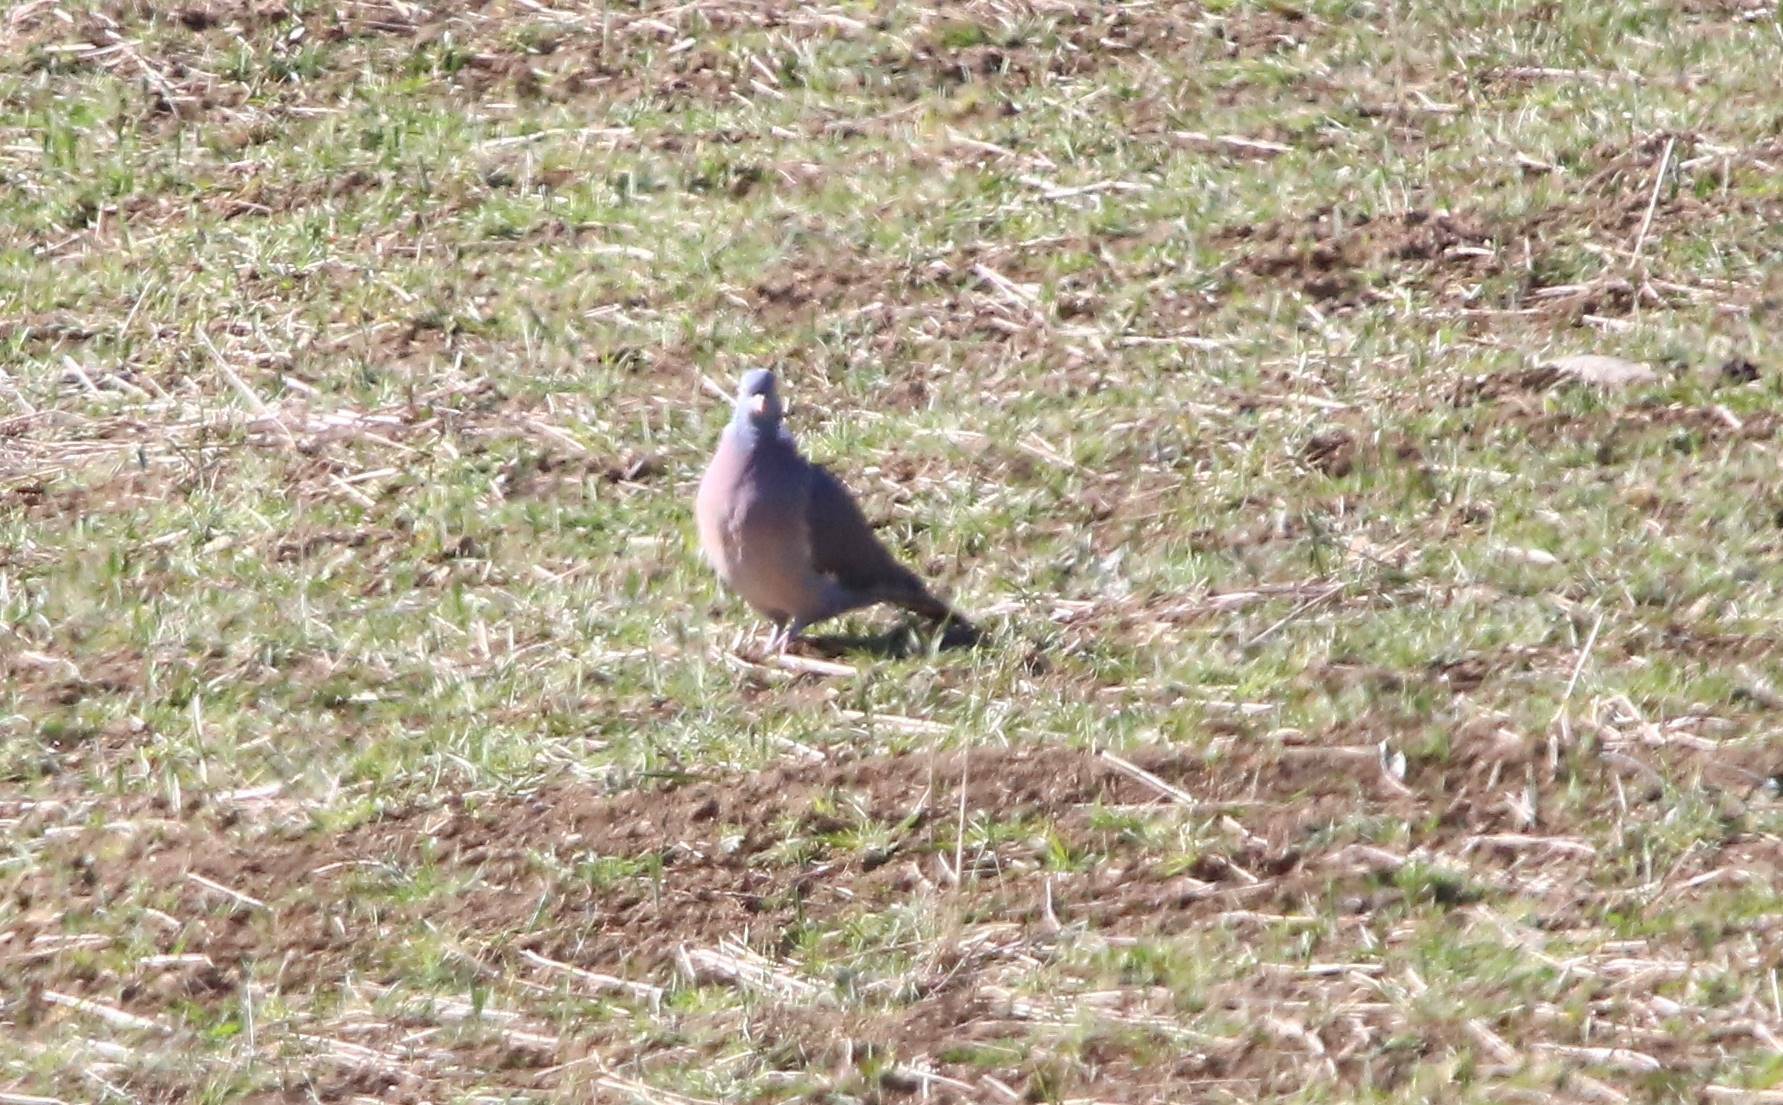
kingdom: Animalia
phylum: Chordata
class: Aves
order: Columbiformes
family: Columbidae
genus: Columba
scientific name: Columba palumbus
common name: Common wood pigeon
